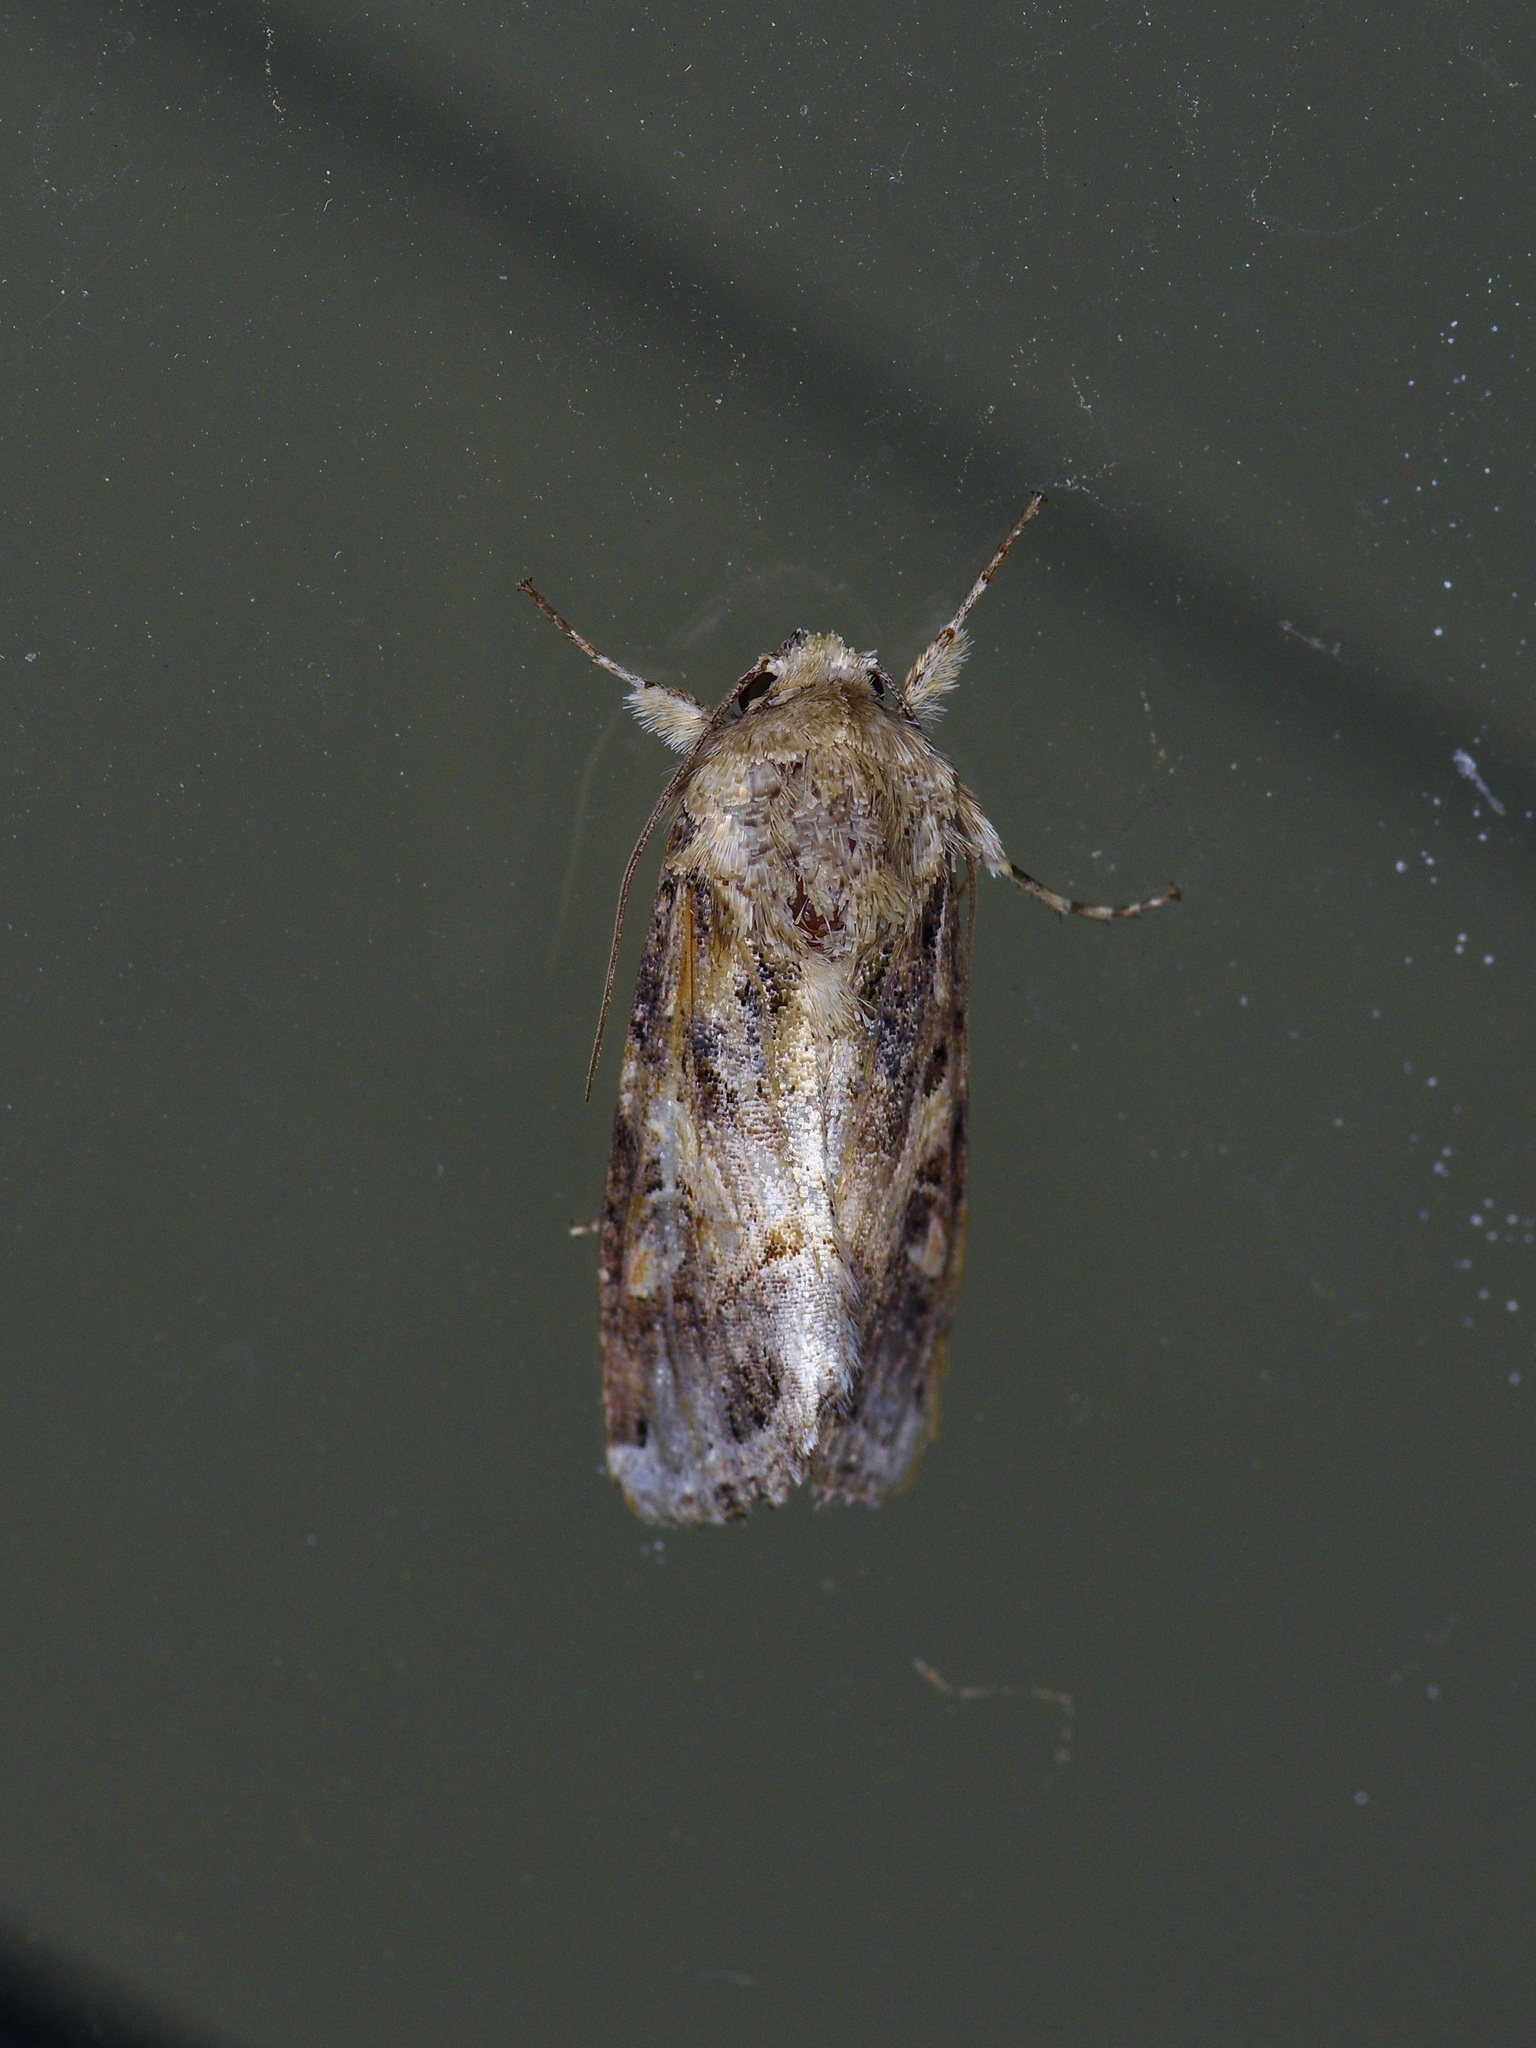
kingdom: Animalia
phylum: Arthropoda
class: Insecta
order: Lepidoptera
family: Noctuidae
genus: Spodoptera
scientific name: Spodoptera ornithogalli
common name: Yellow-striped armyworm
